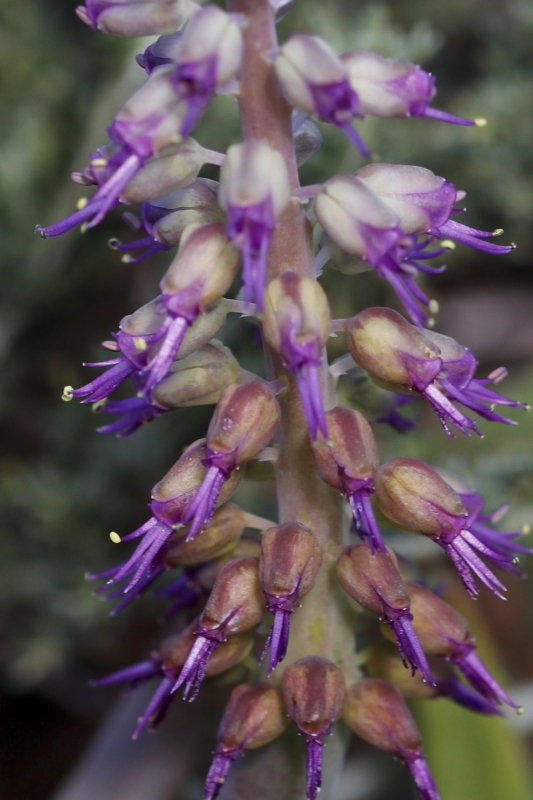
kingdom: Plantae
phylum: Tracheophyta
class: Liliopsida
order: Asparagales
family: Asparagaceae
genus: Lachenalia
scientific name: Lachenalia violacea
